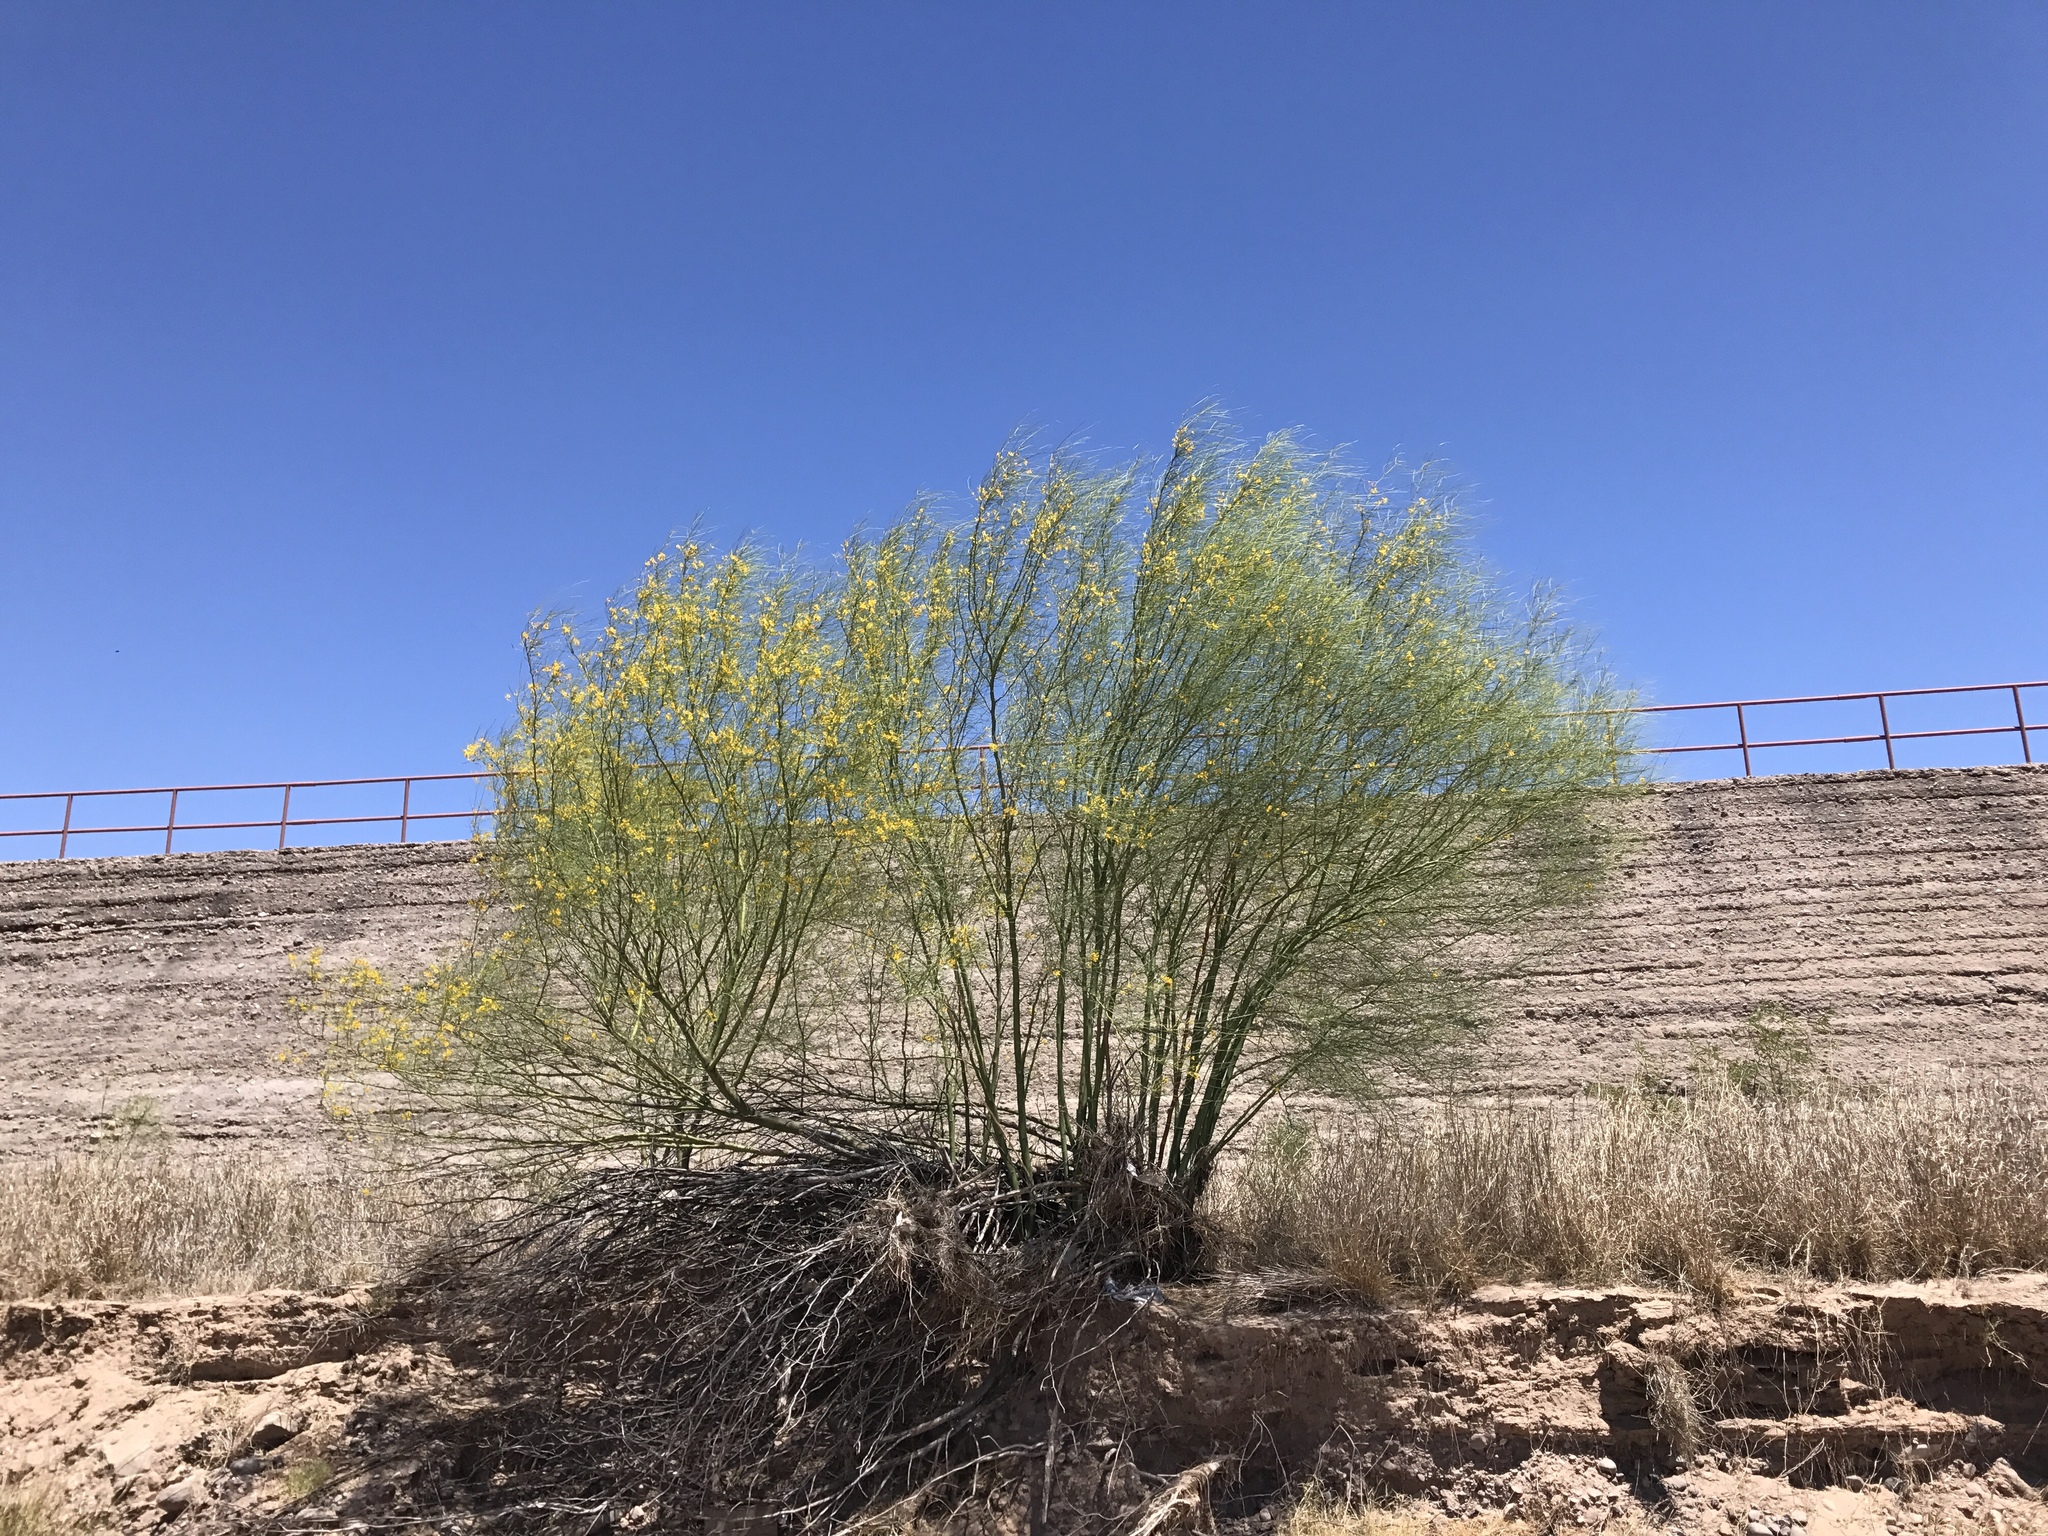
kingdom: Plantae
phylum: Tracheophyta
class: Magnoliopsida
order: Fabales
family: Fabaceae
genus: Parkinsonia
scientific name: Parkinsonia aculeata
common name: Jerusalem thorn
